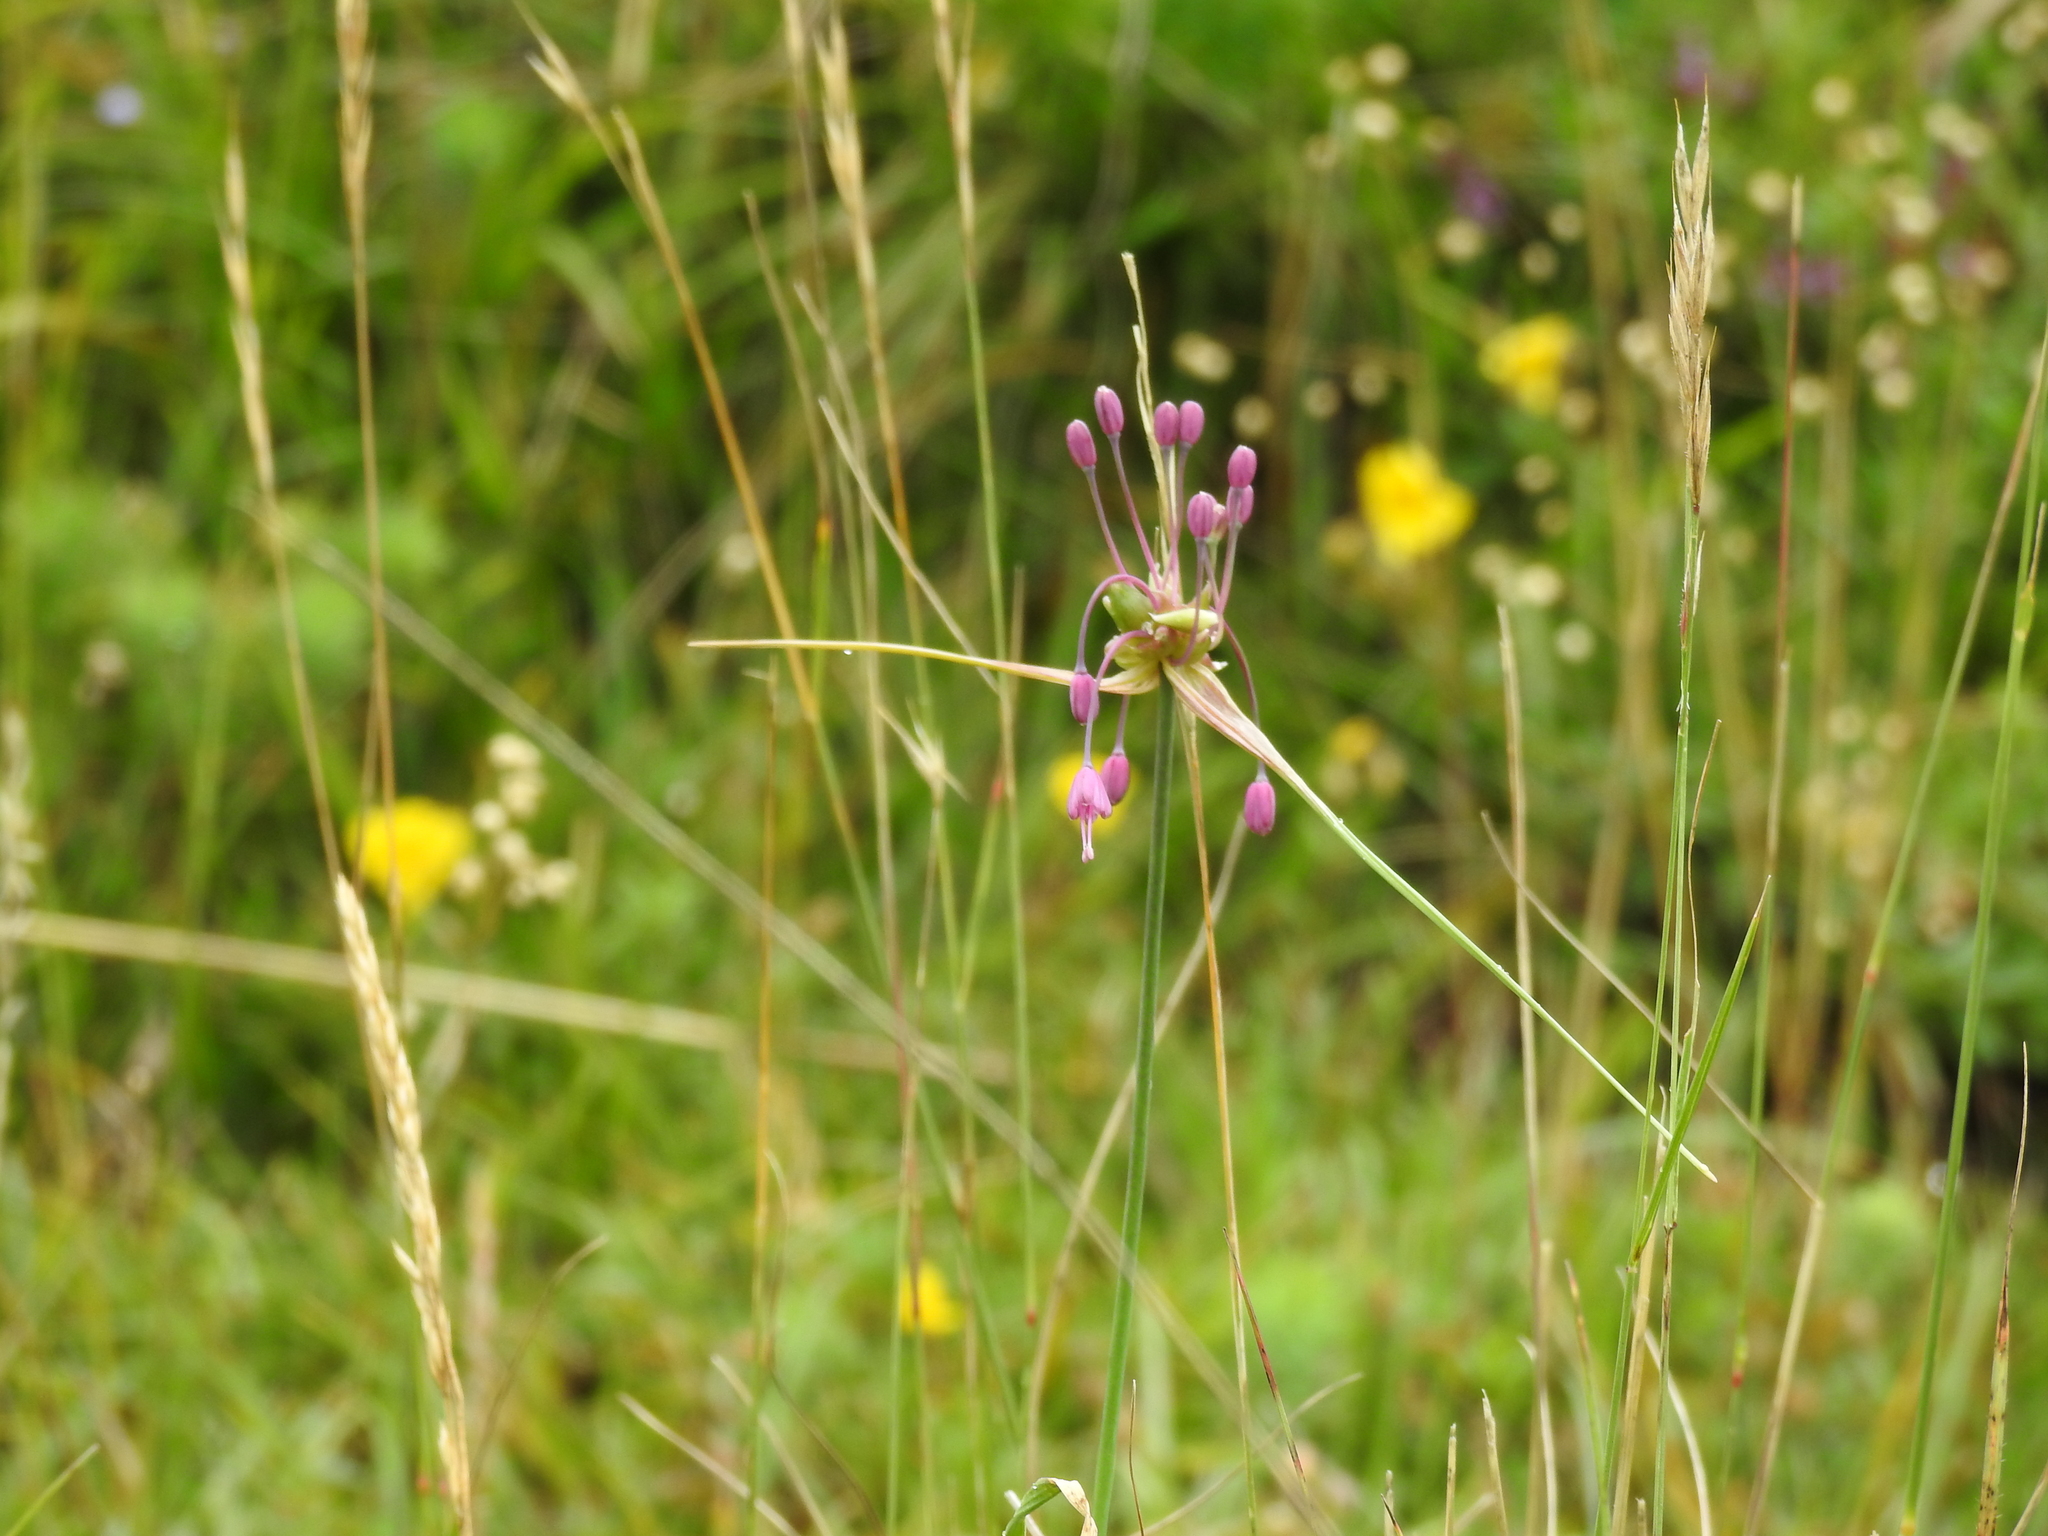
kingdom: Plantae
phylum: Tracheophyta
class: Liliopsida
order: Asparagales
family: Amaryllidaceae
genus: Allium
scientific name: Allium carinatum
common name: Keeled garlic
